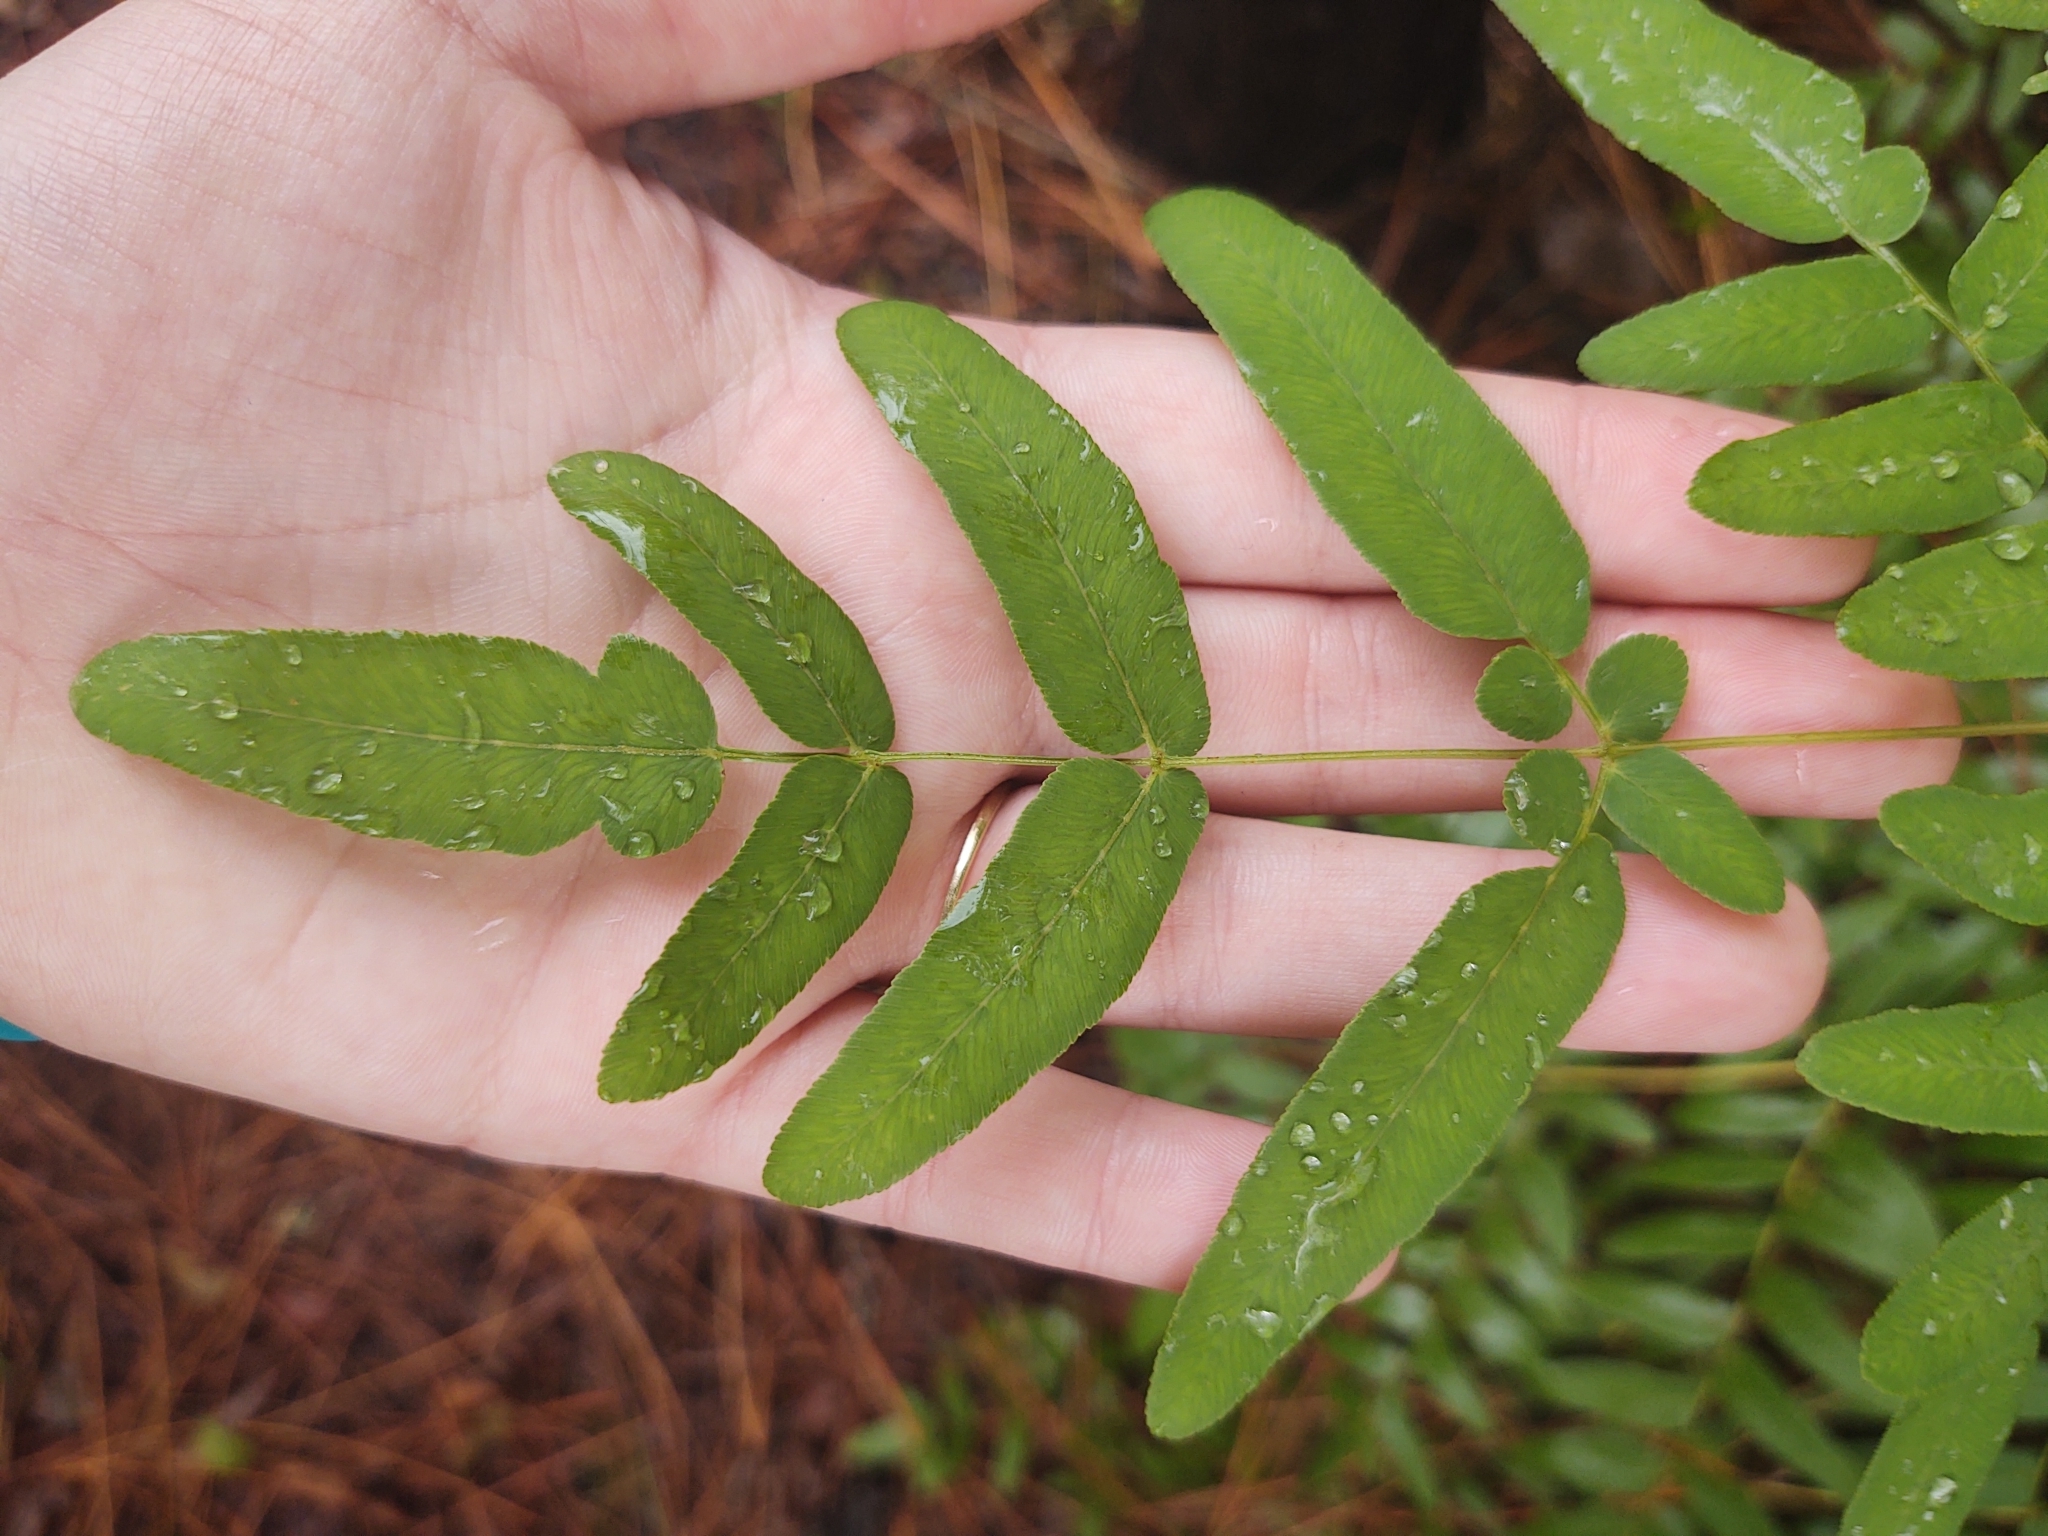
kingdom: Plantae
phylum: Tracheophyta
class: Polypodiopsida
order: Osmundales
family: Osmundaceae
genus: Osmunda
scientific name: Osmunda spectabilis
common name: American royal fern
